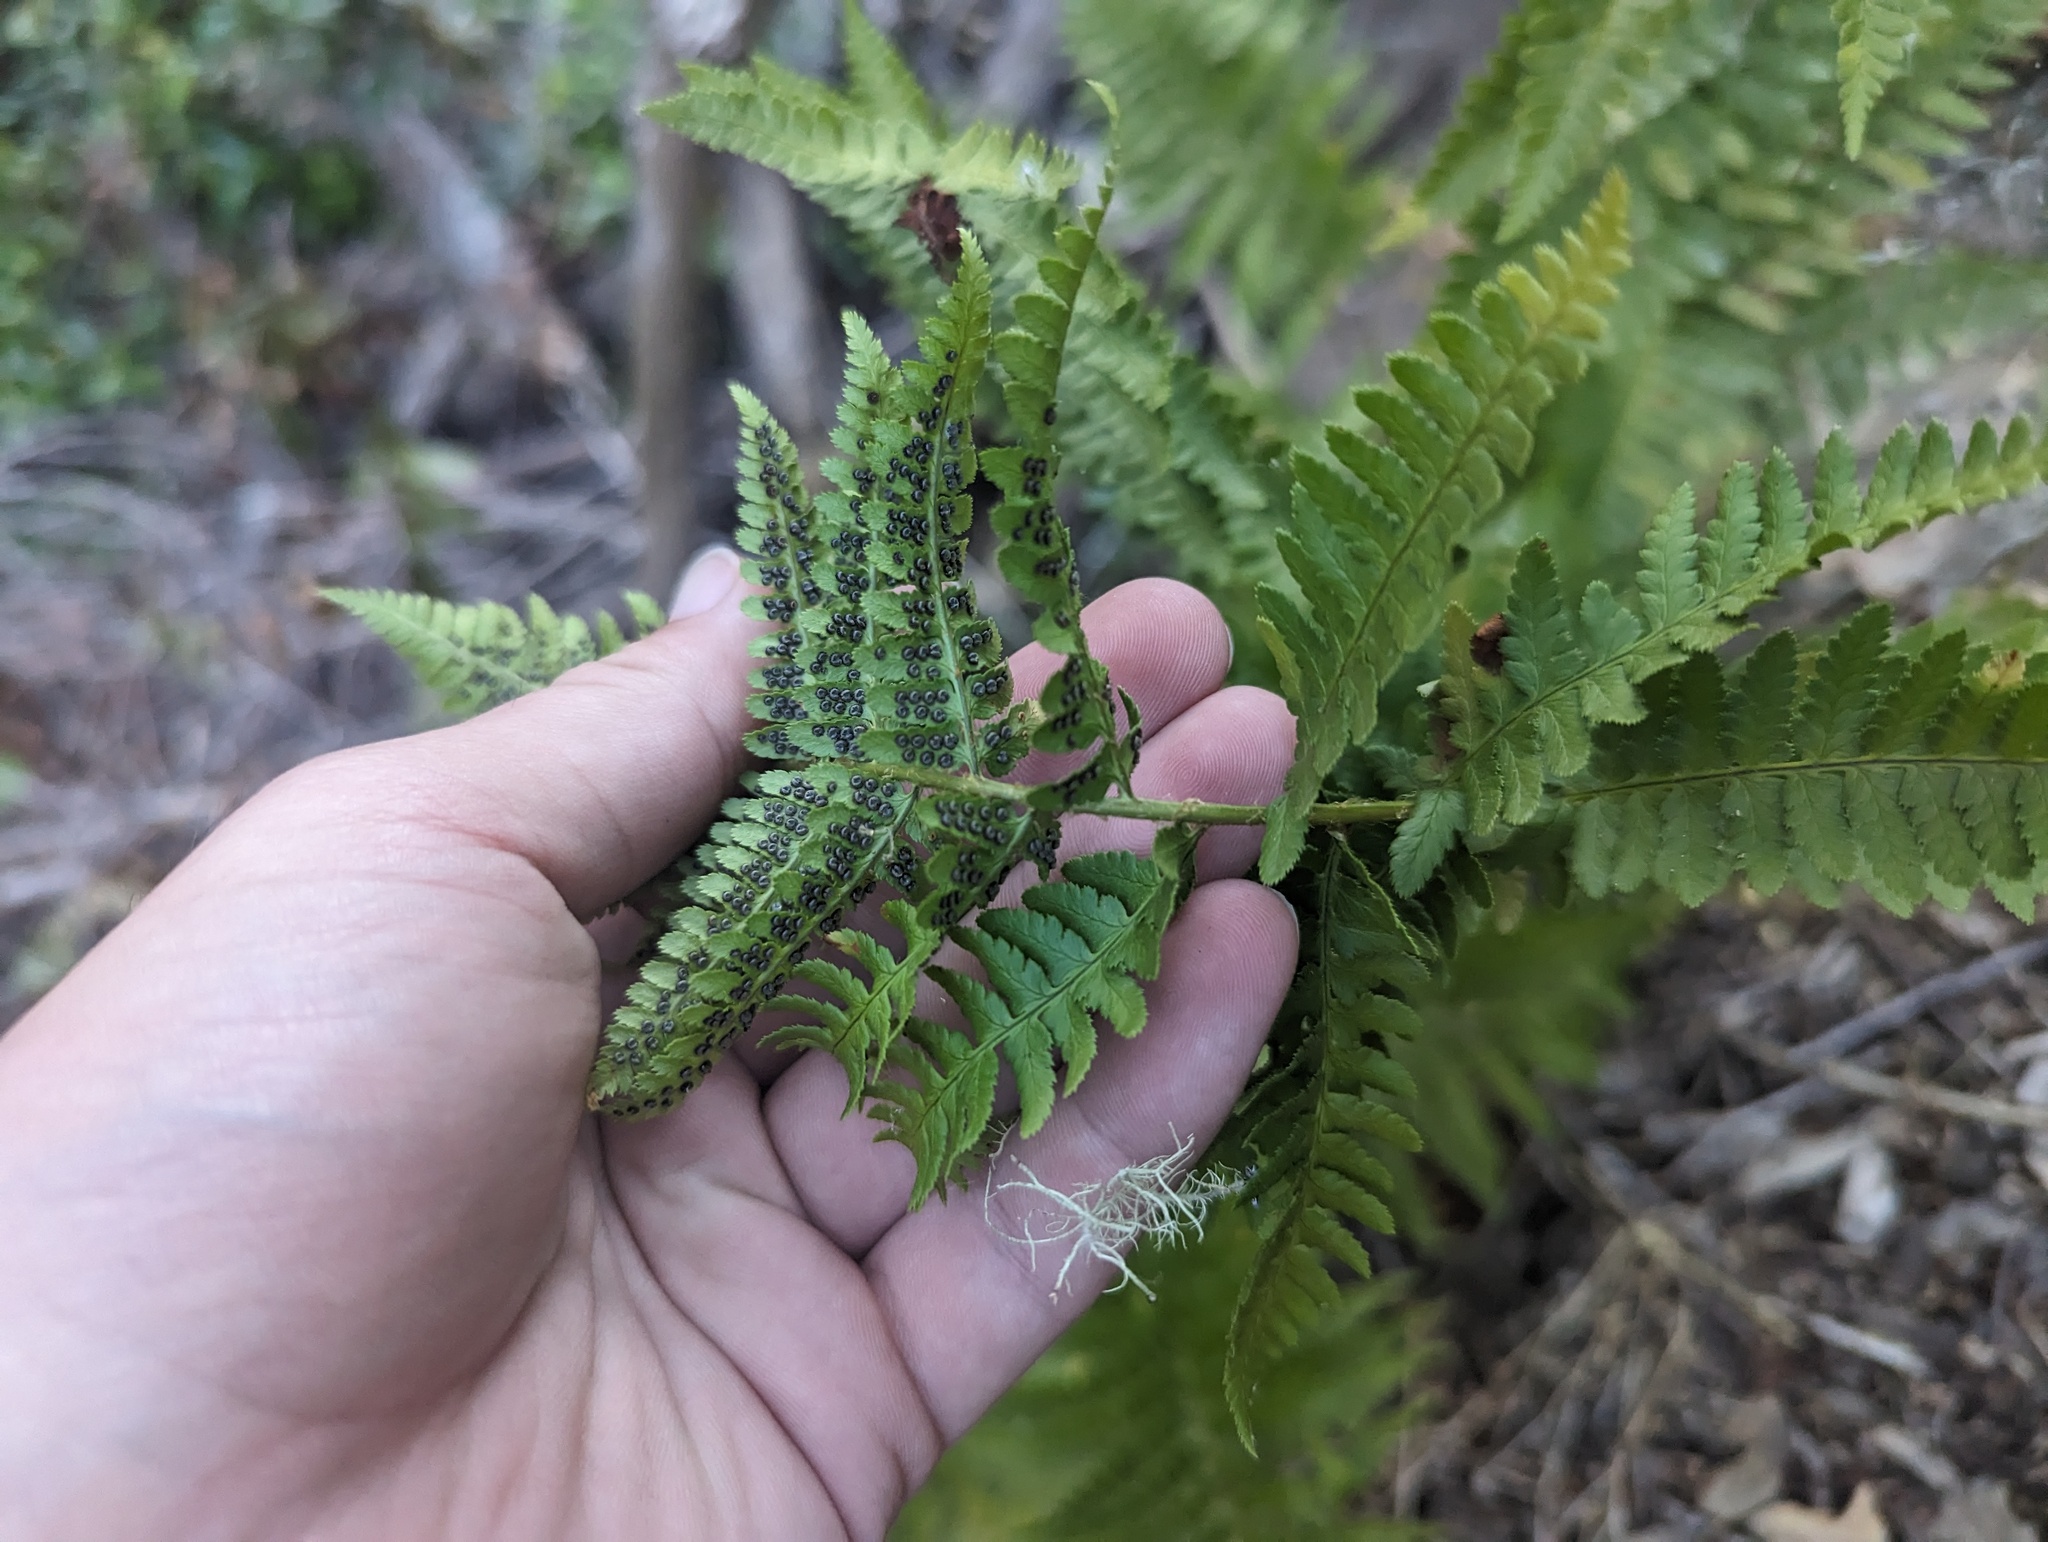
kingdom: Plantae
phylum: Tracheophyta
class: Polypodiopsida
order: Polypodiales
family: Dryopteridaceae
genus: Dryopteris
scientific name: Dryopteris arguta
